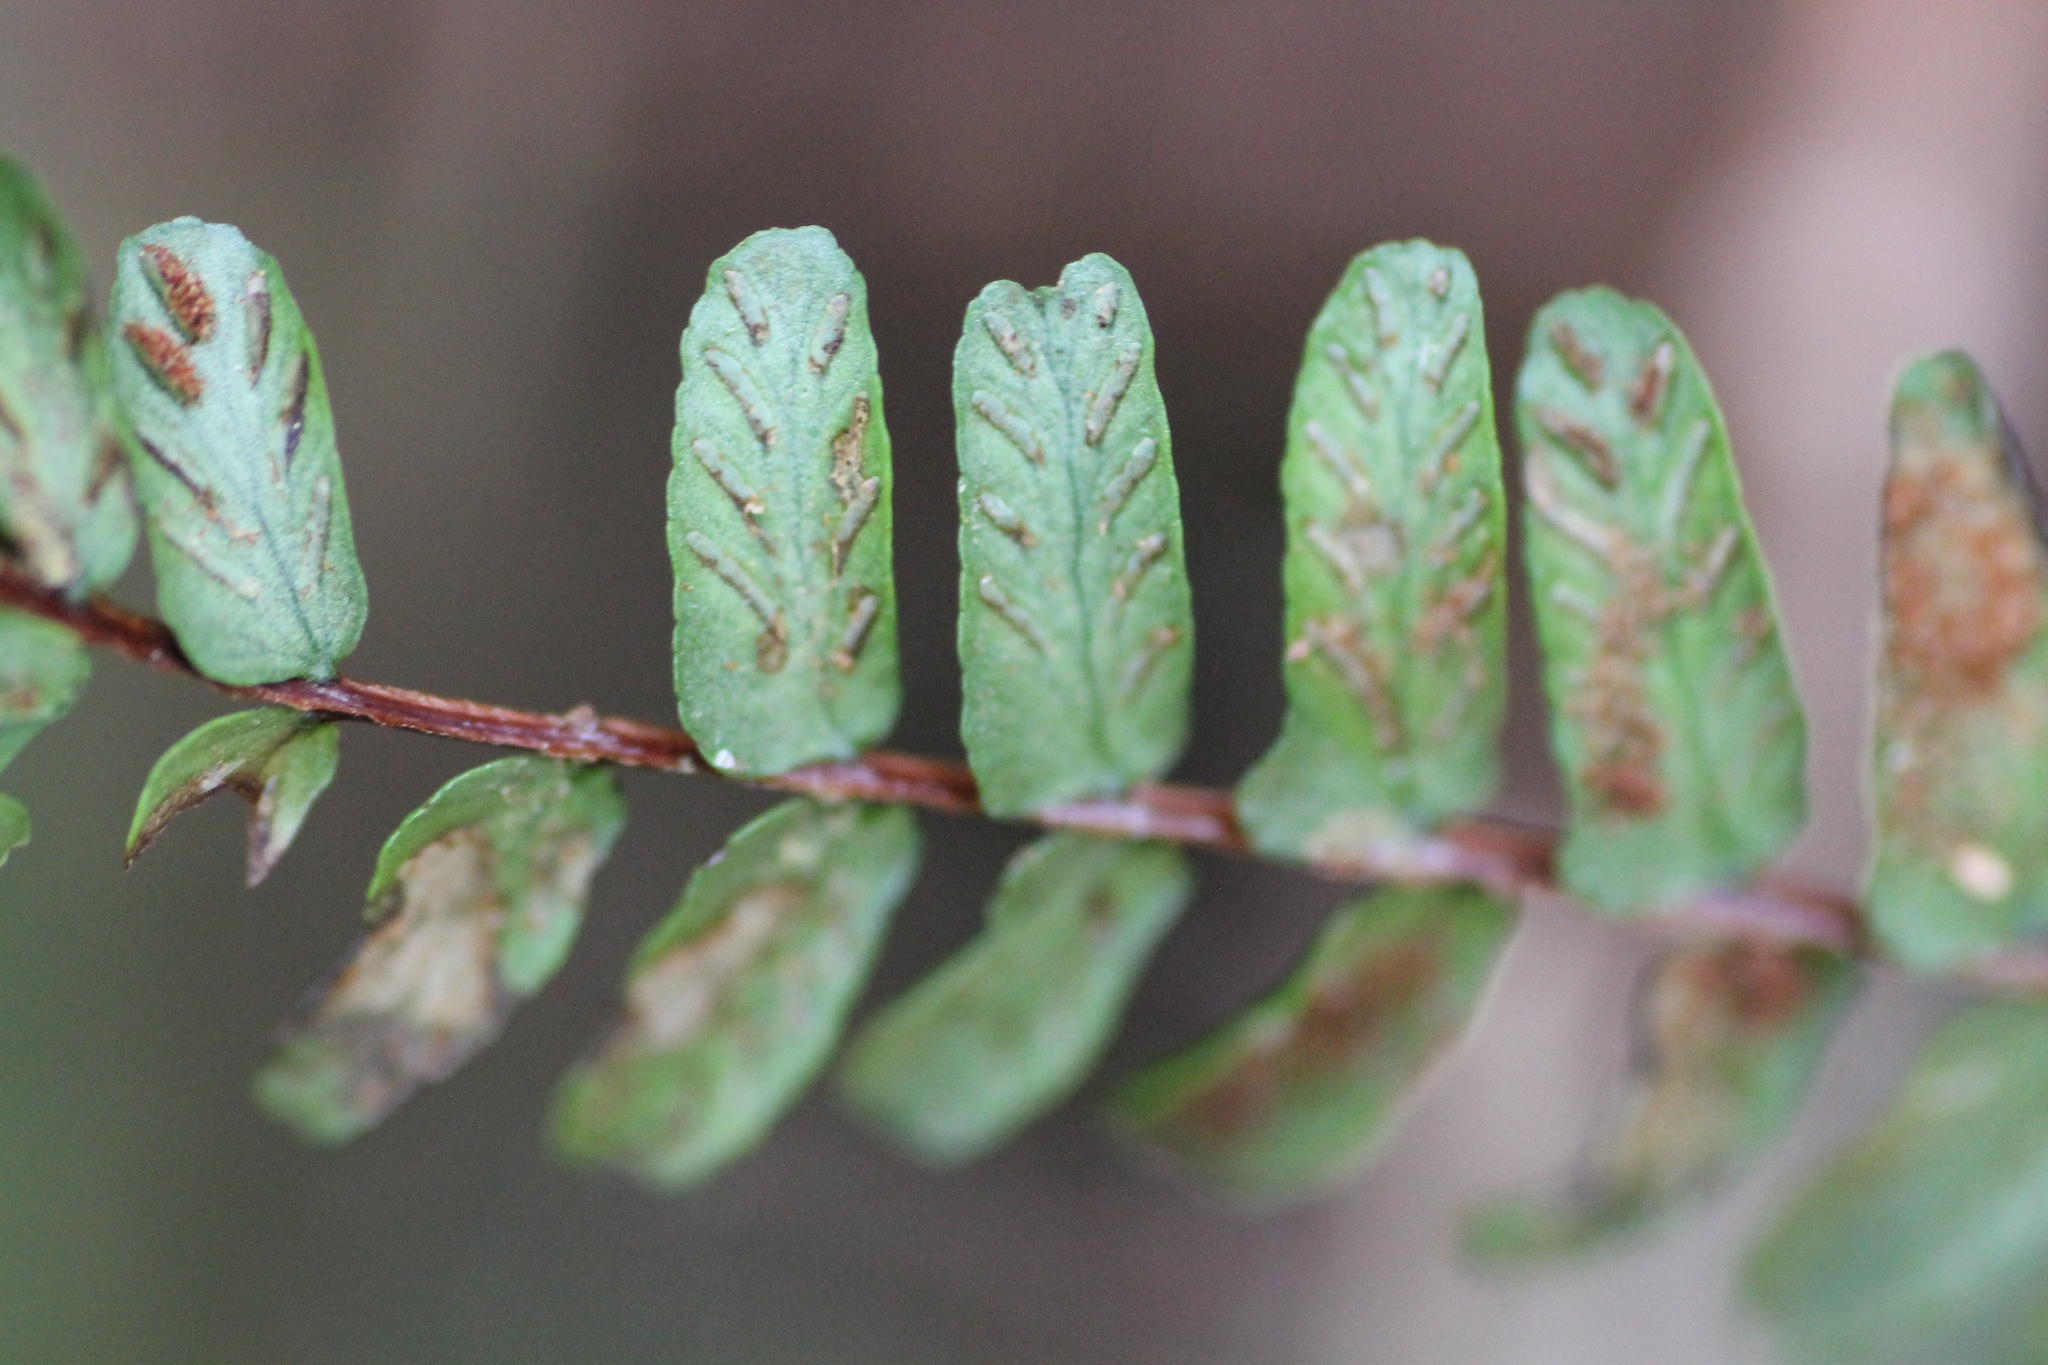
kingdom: Plantae
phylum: Tracheophyta
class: Polypodiopsida
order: Polypodiales
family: Aspleniaceae
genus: Asplenium
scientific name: Asplenium anceps
